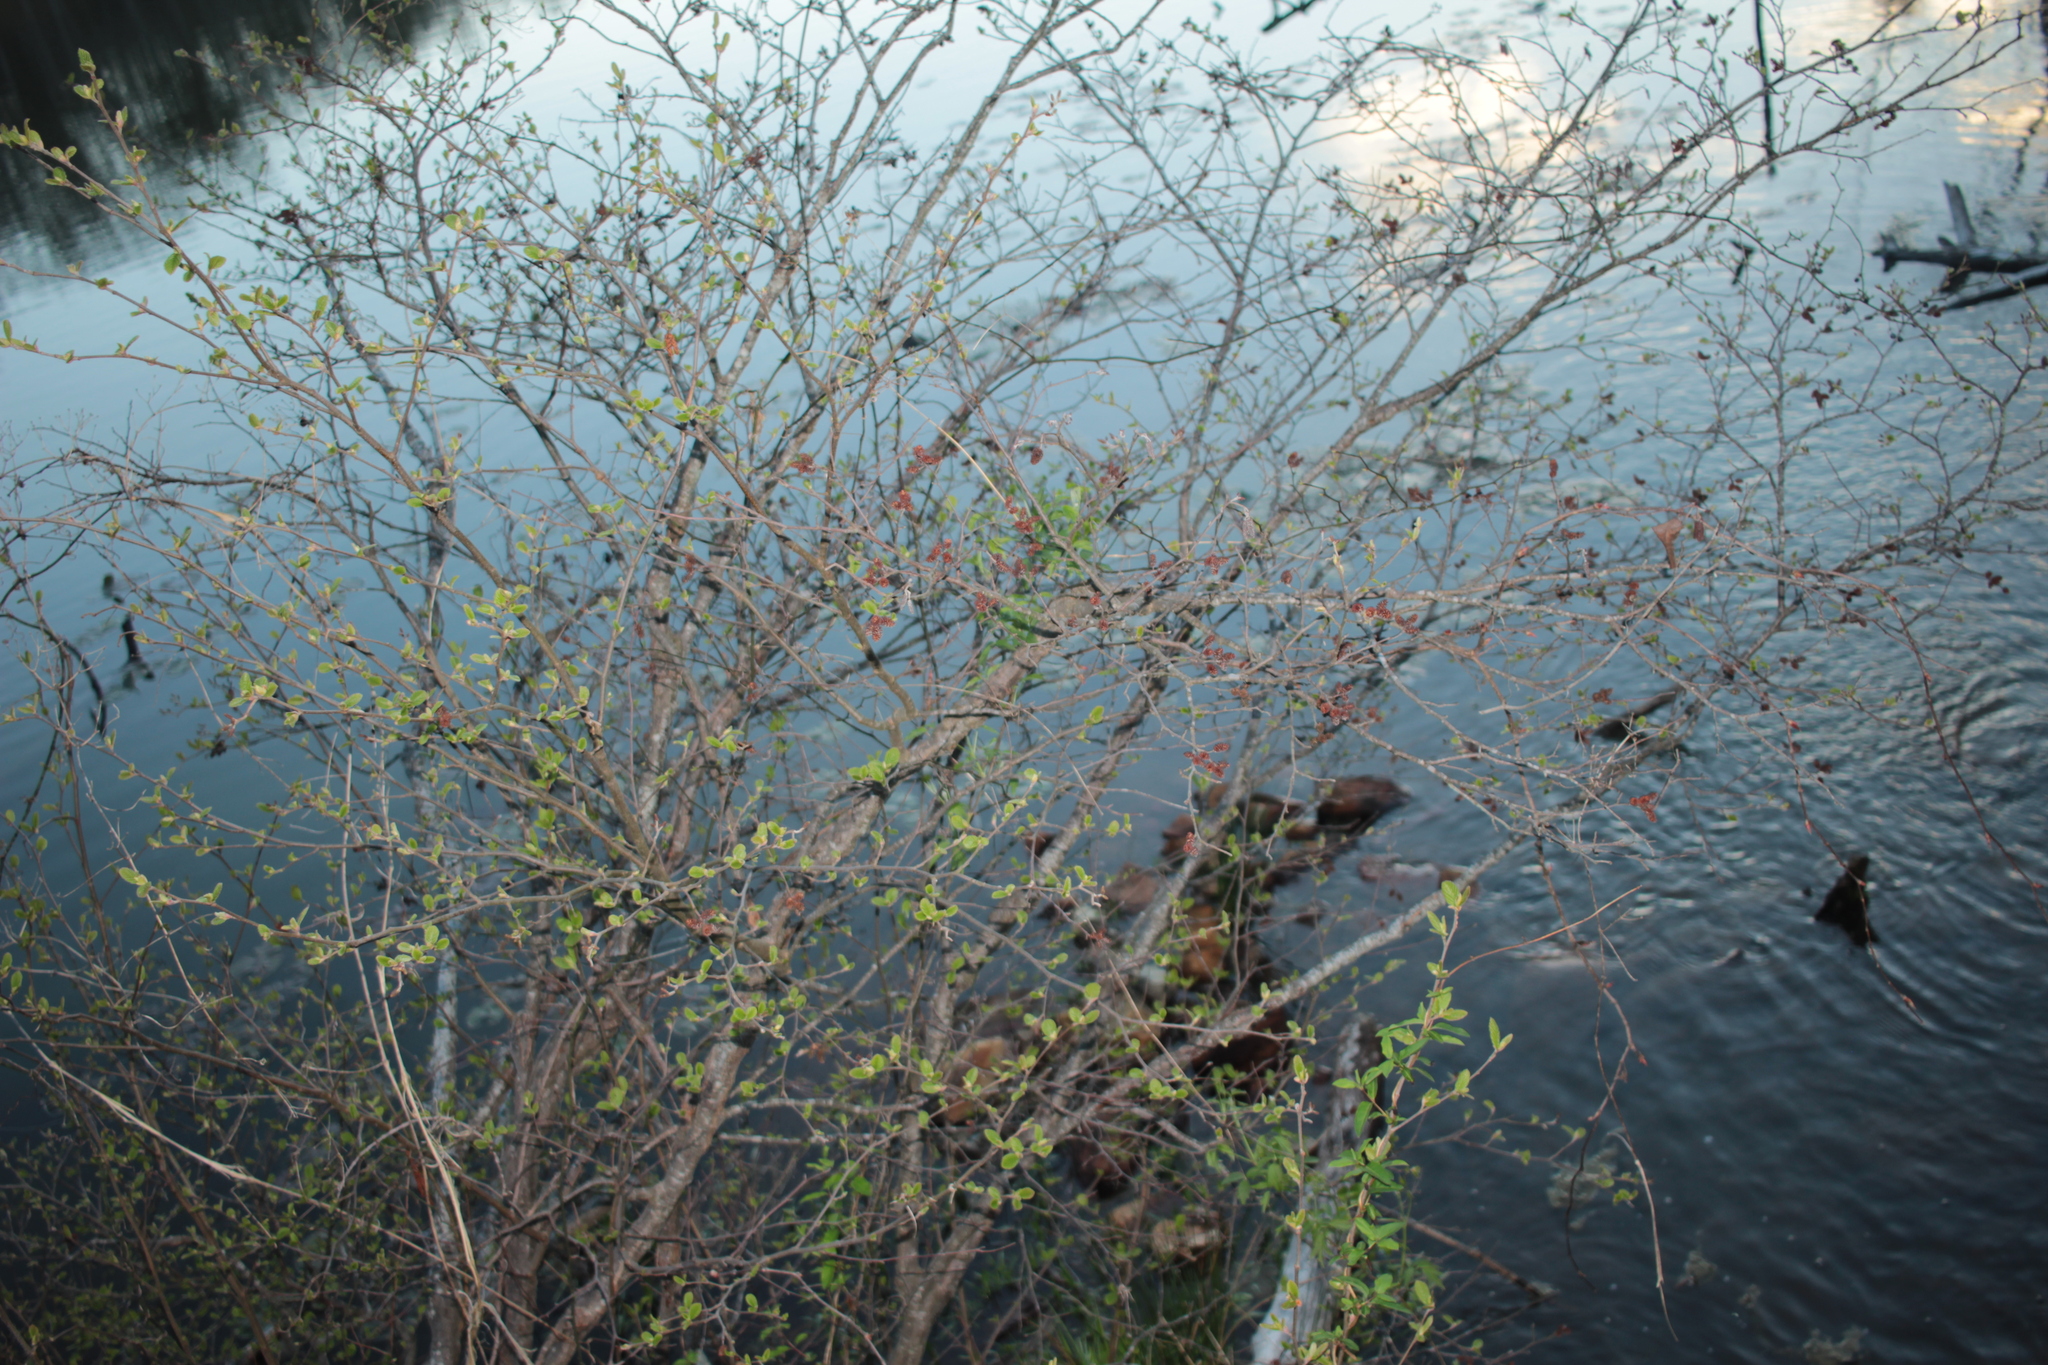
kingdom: Plantae
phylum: Tracheophyta
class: Magnoliopsida
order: Fagales
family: Betulaceae
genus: Alnus
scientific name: Alnus serrulata
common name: Hazel alder
